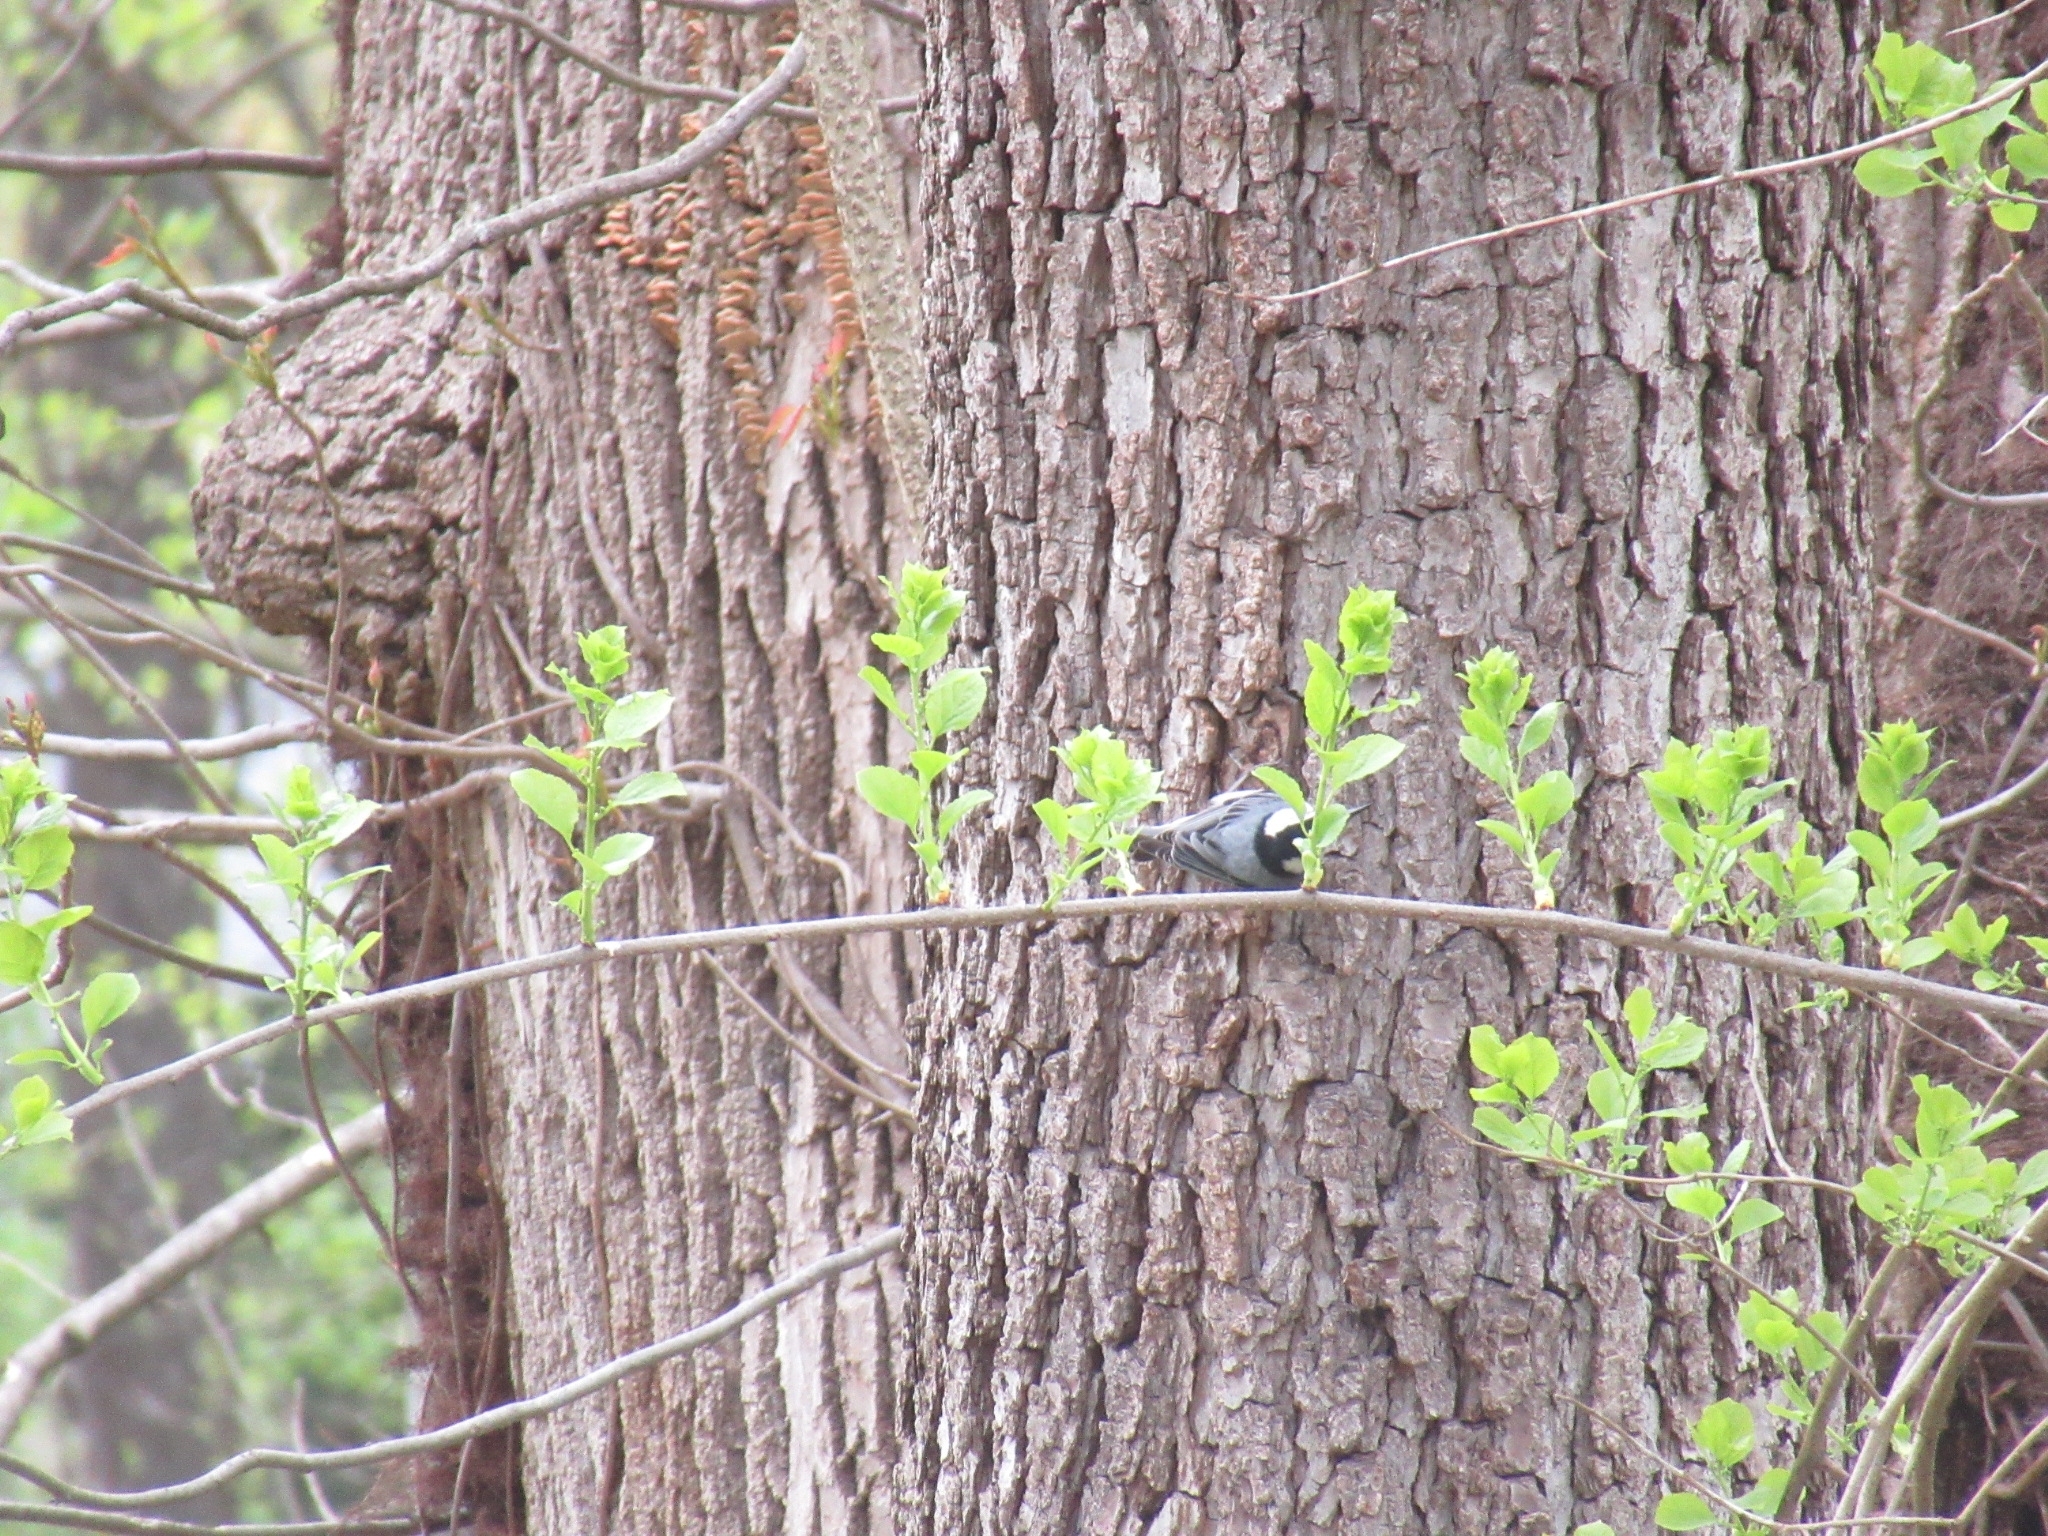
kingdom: Animalia
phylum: Chordata
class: Aves
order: Passeriformes
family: Sittidae
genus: Sitta
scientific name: Sitta carolinensis
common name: White-breasted nuthatch
